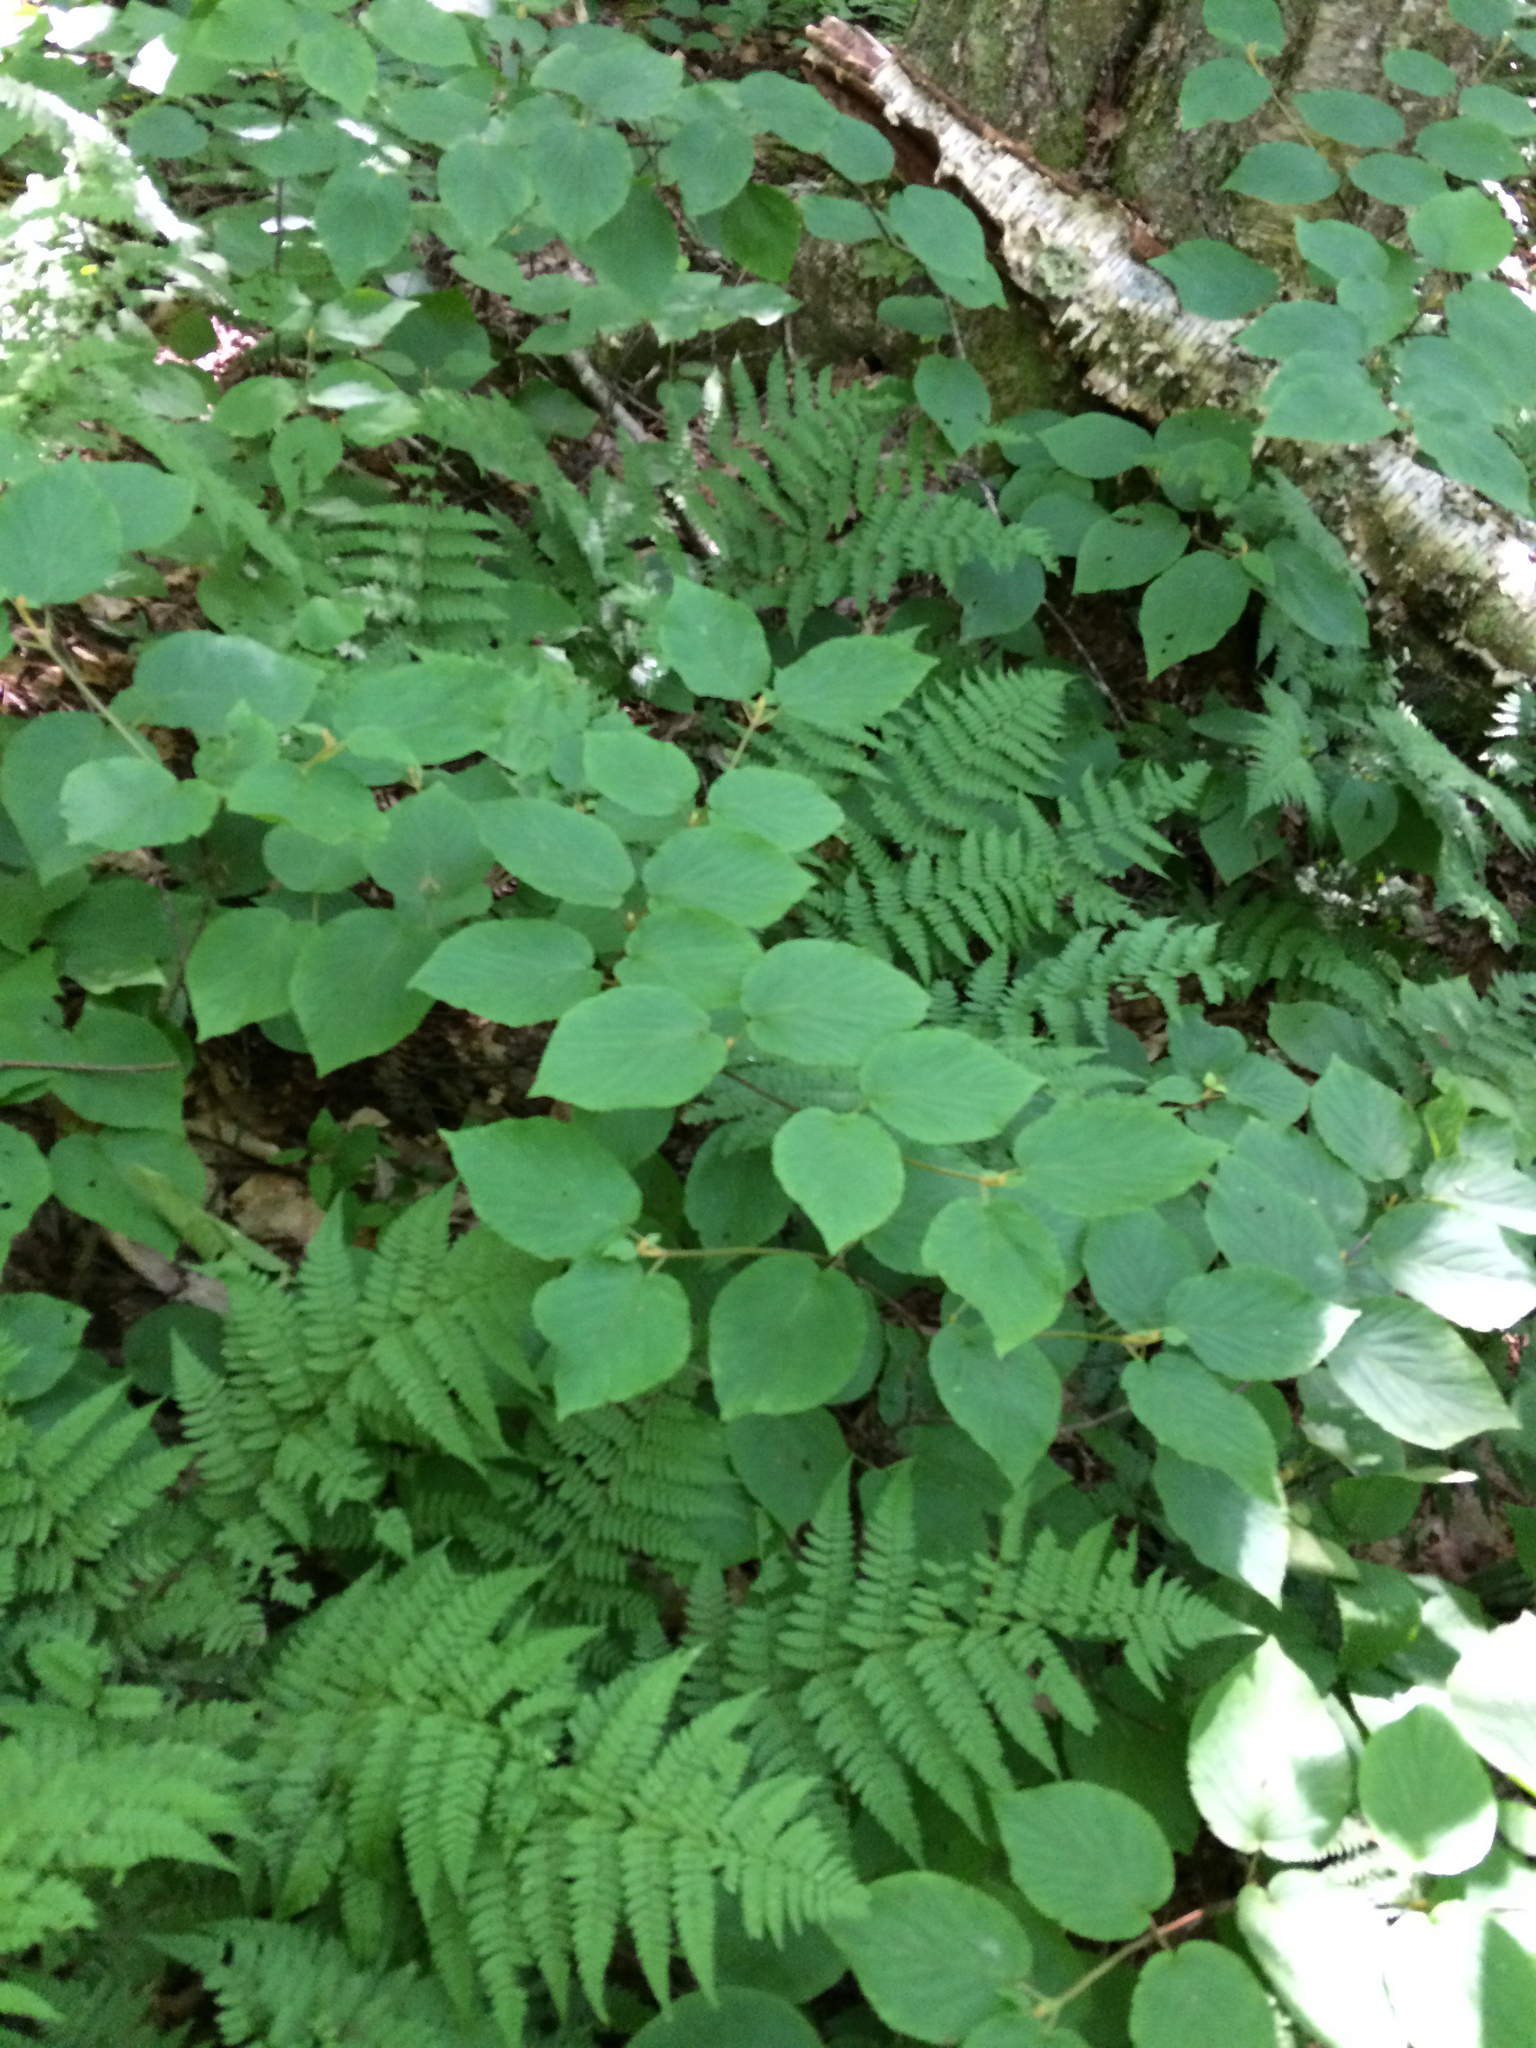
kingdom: Plantae
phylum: Tracheophyta
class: Magnoliopsida
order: Dipsacales
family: Viburnaceae
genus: Viburnum
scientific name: Viburnum lantanoides
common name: Hobblebush
